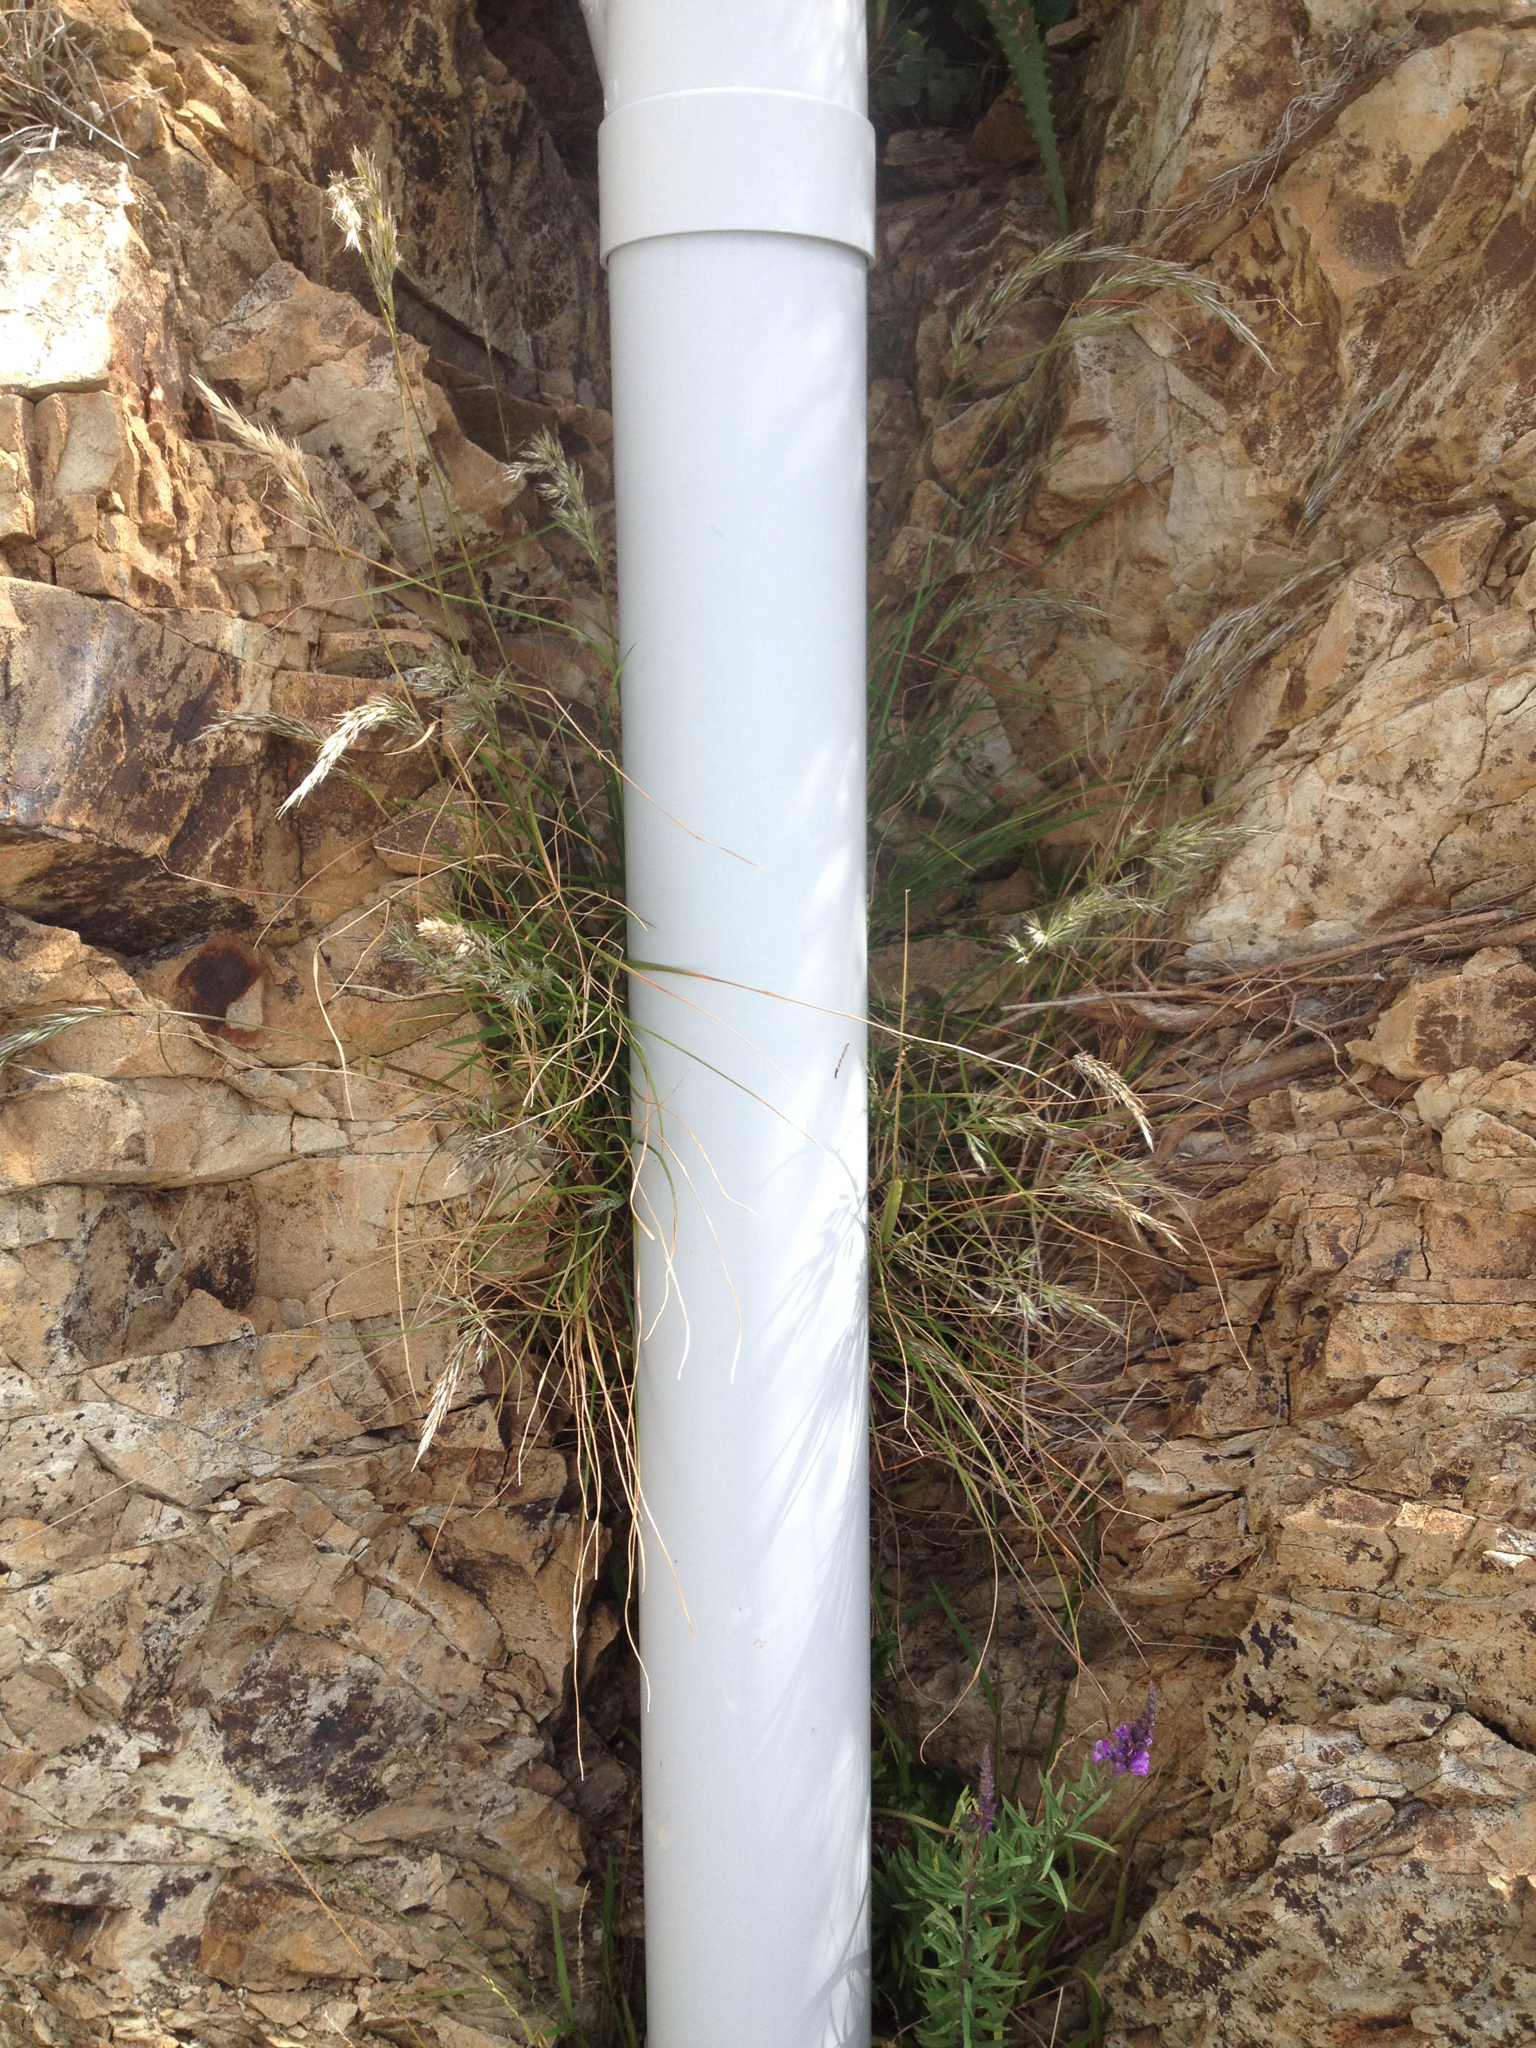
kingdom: Plantae
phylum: Tracheophyta
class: Liliopsida
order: Poales
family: Poaceae
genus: Koeleria
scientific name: Koeleria arduana
